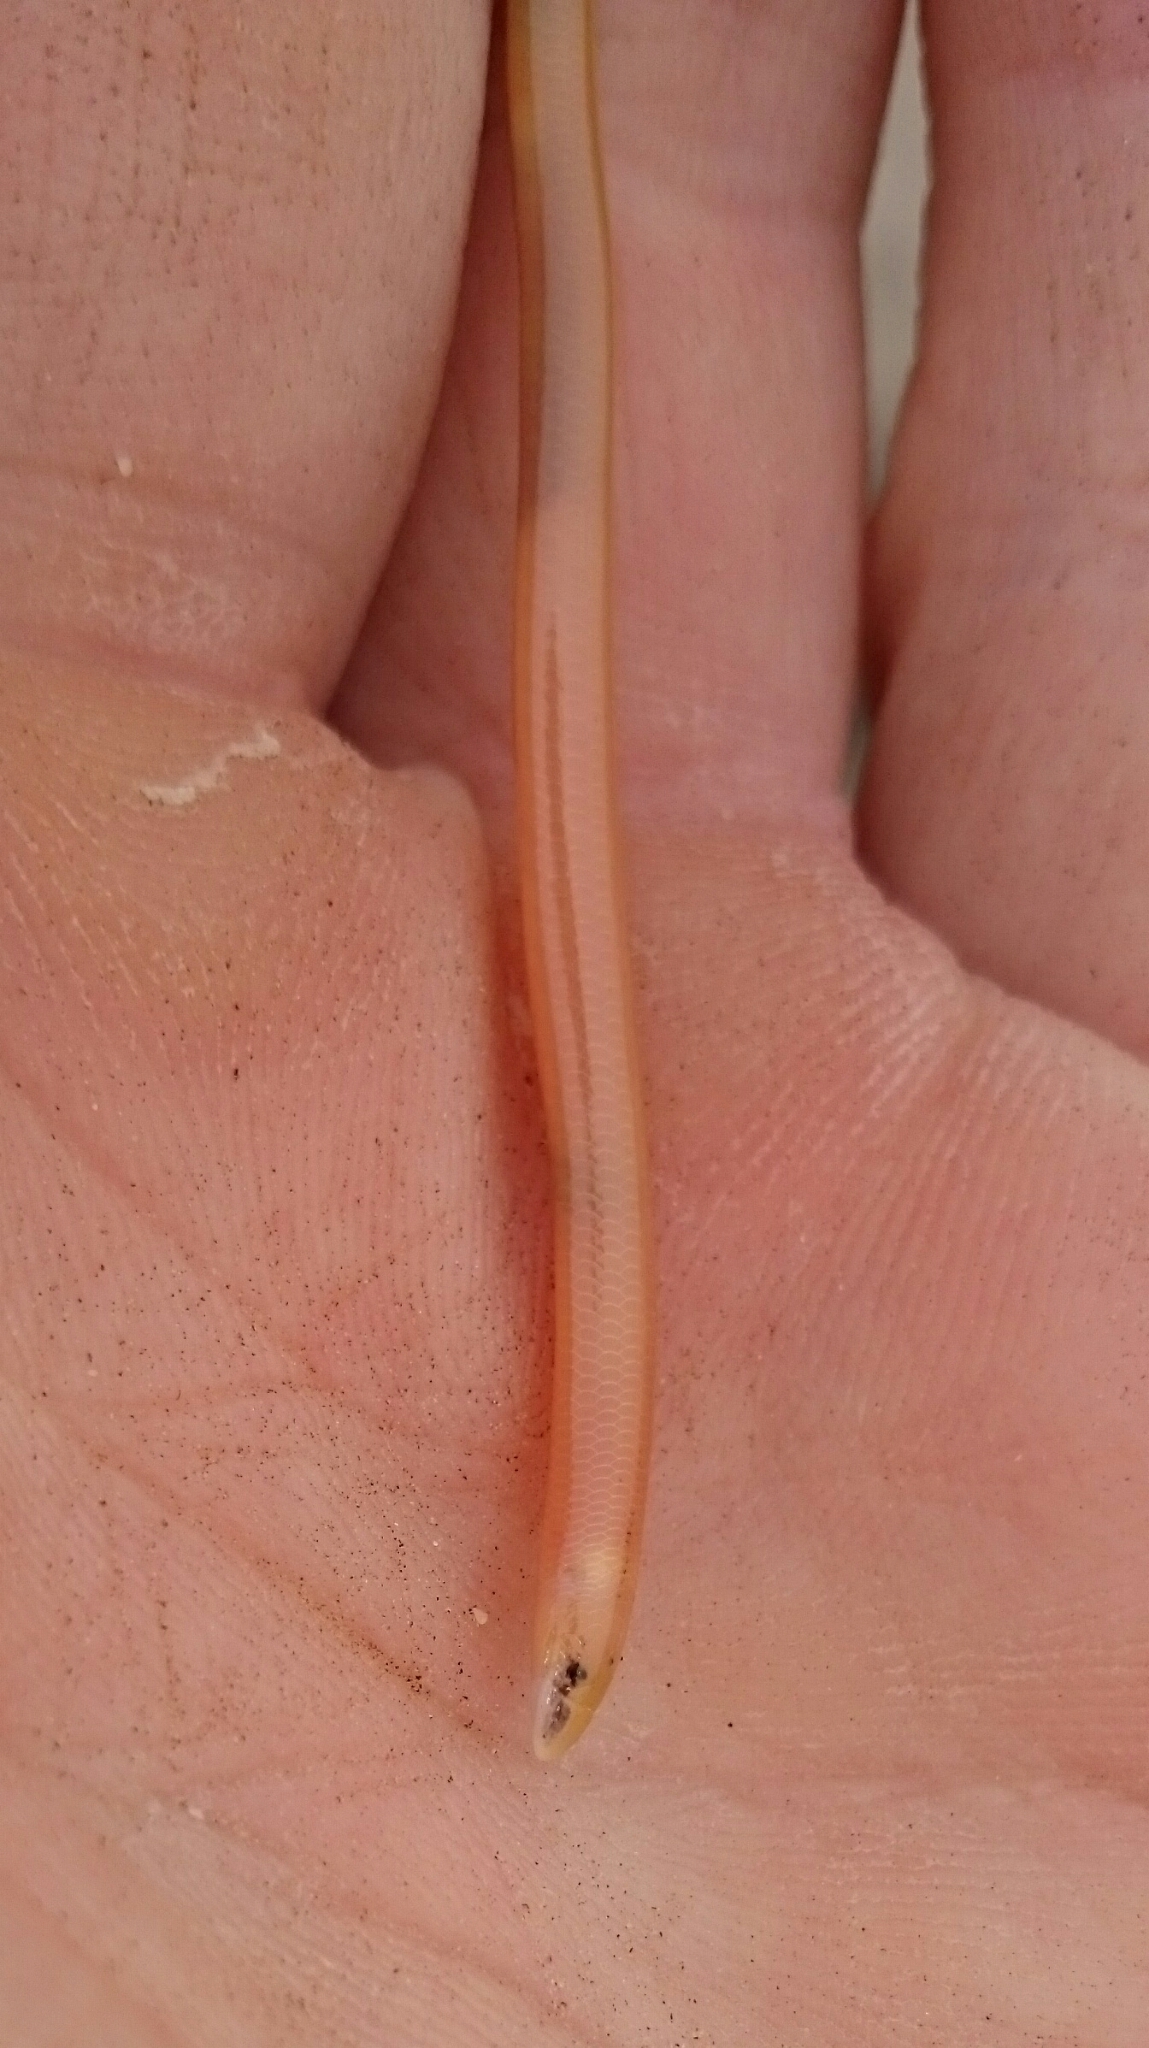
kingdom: Animalia
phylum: Chordata
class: Squamata
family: Scincidae
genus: Acontias
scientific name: Acontias lineatus
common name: Lined lance skink
